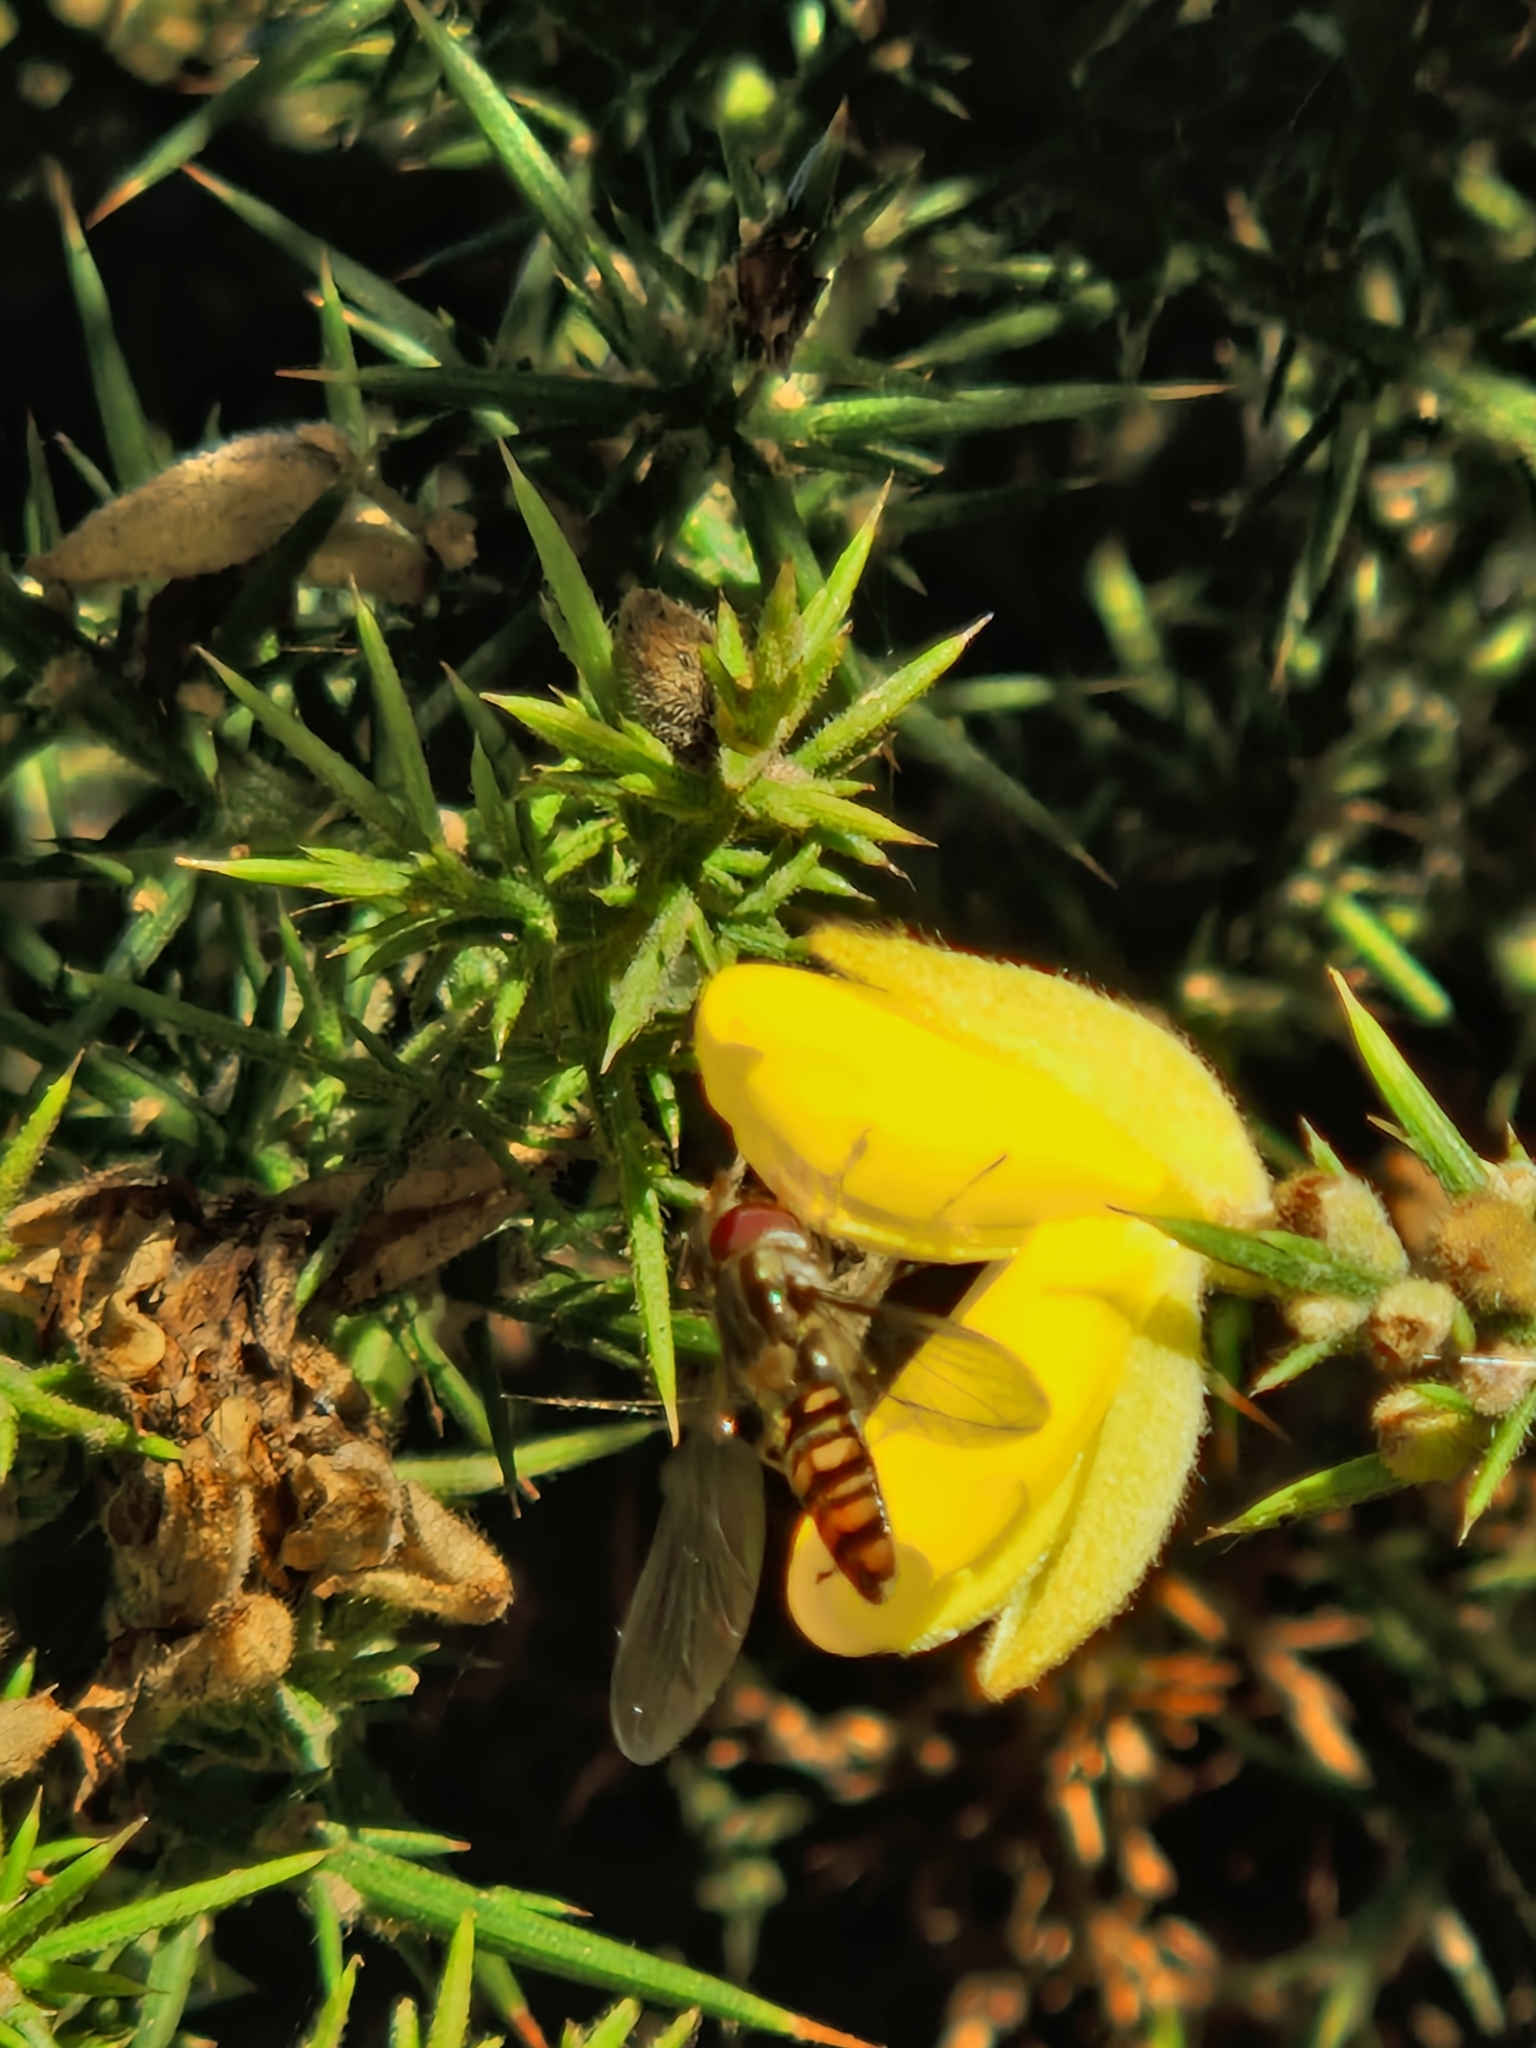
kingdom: Animalia
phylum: Arthropoda
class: Insecta
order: Diptera
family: Syrphidae
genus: Episyrphus
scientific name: Episyrphus balteatus
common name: Marmalade hoverfly
